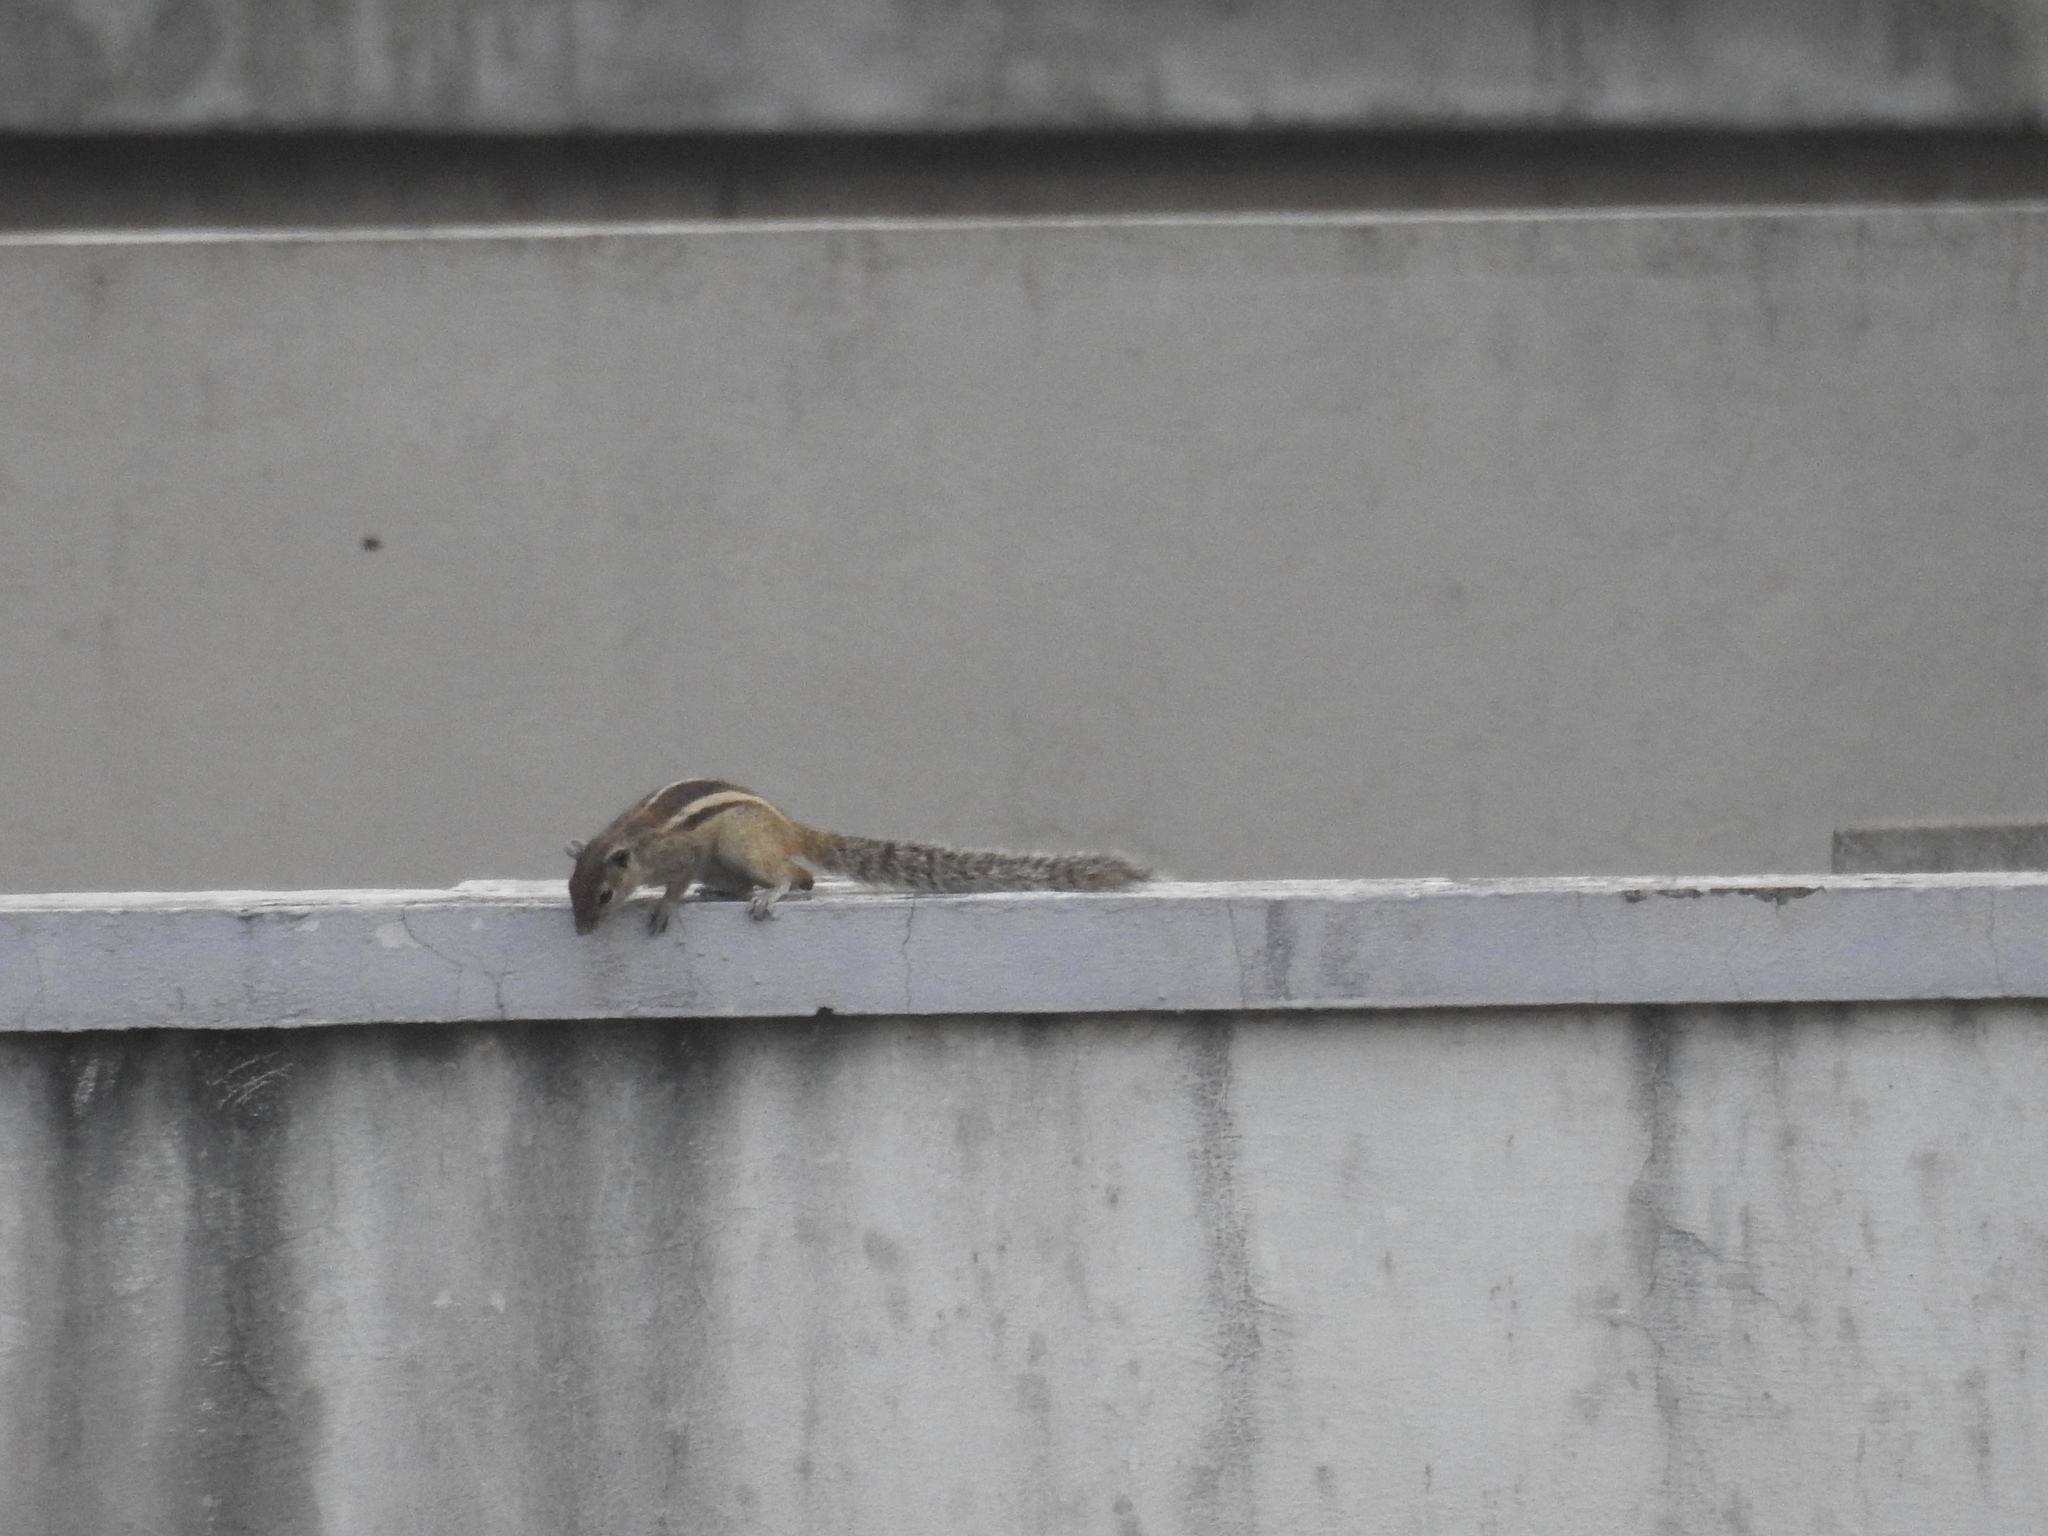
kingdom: Animalia
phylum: Chordata
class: Mammalia
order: Rodentia
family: Sciuridae
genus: Funambulus
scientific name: Funambulus palmarum
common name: Indian palm squirrel
